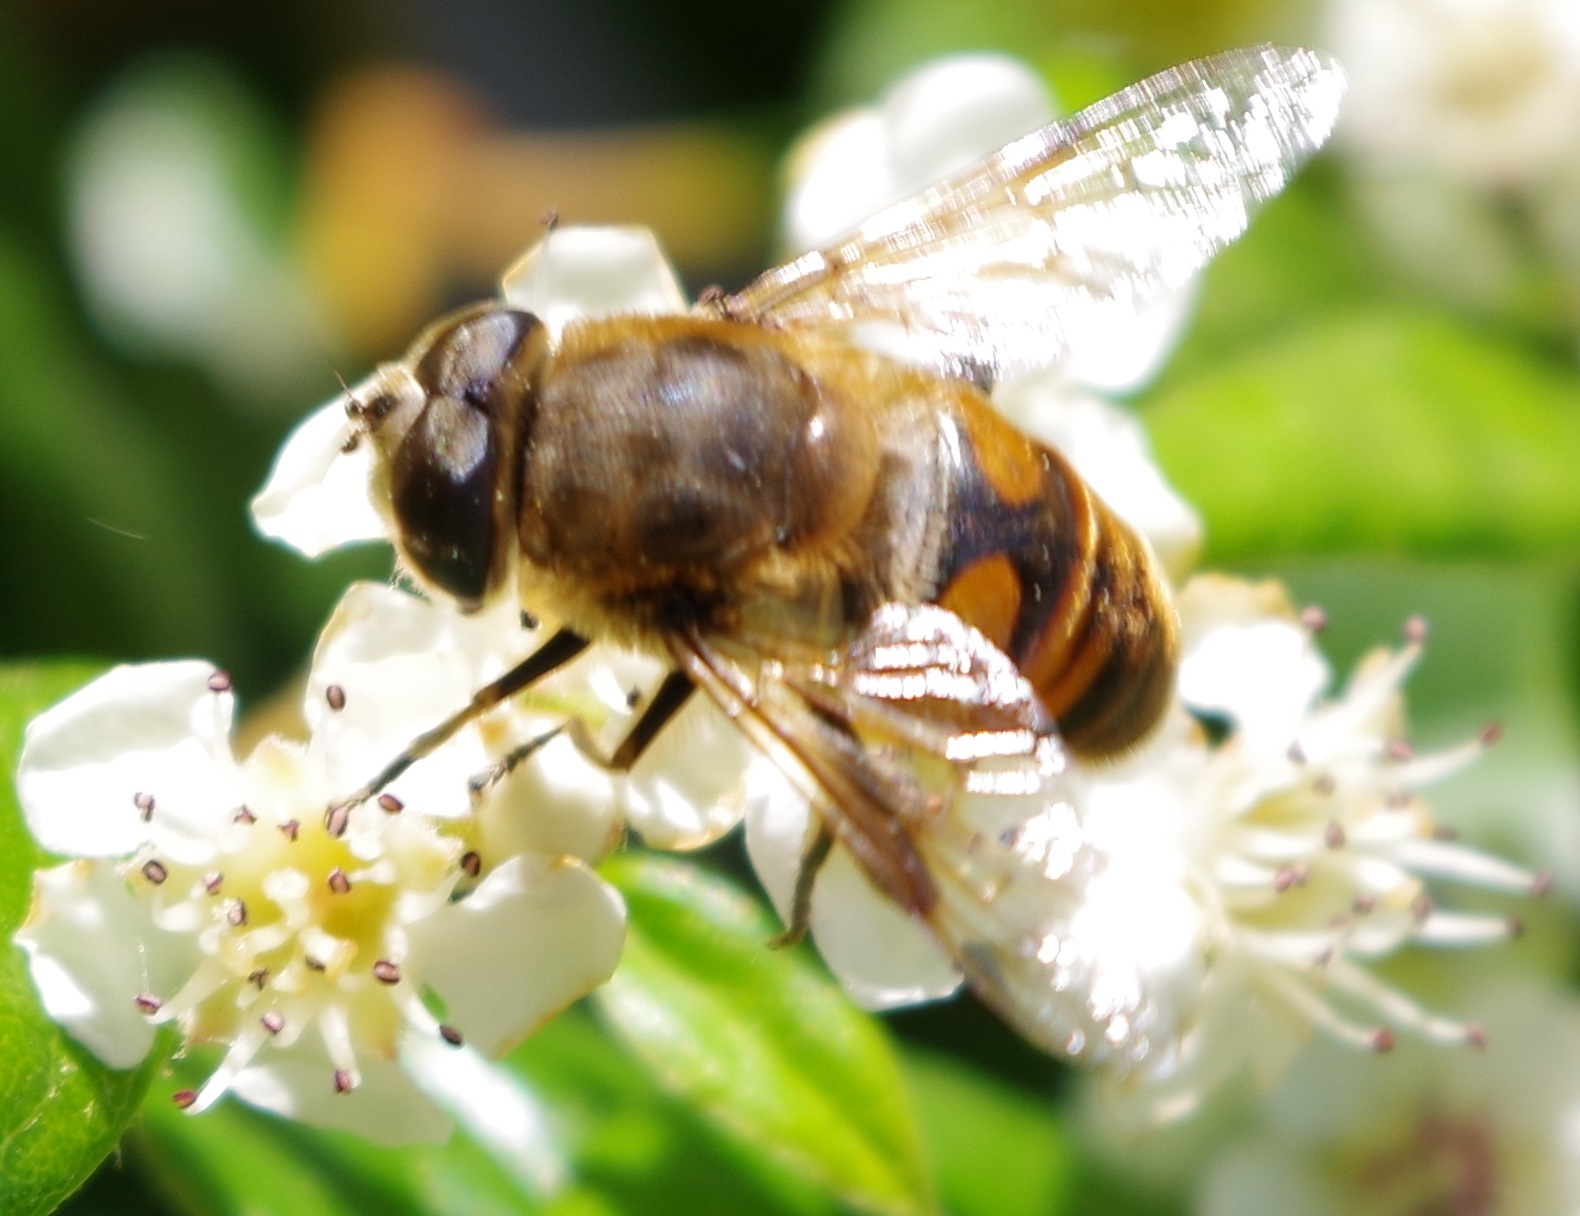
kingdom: Animalia
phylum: Arthropoda
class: Insecta
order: Diptera
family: Syrphidae
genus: Eristalis
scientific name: Eristalis tenax
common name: Drone fly
